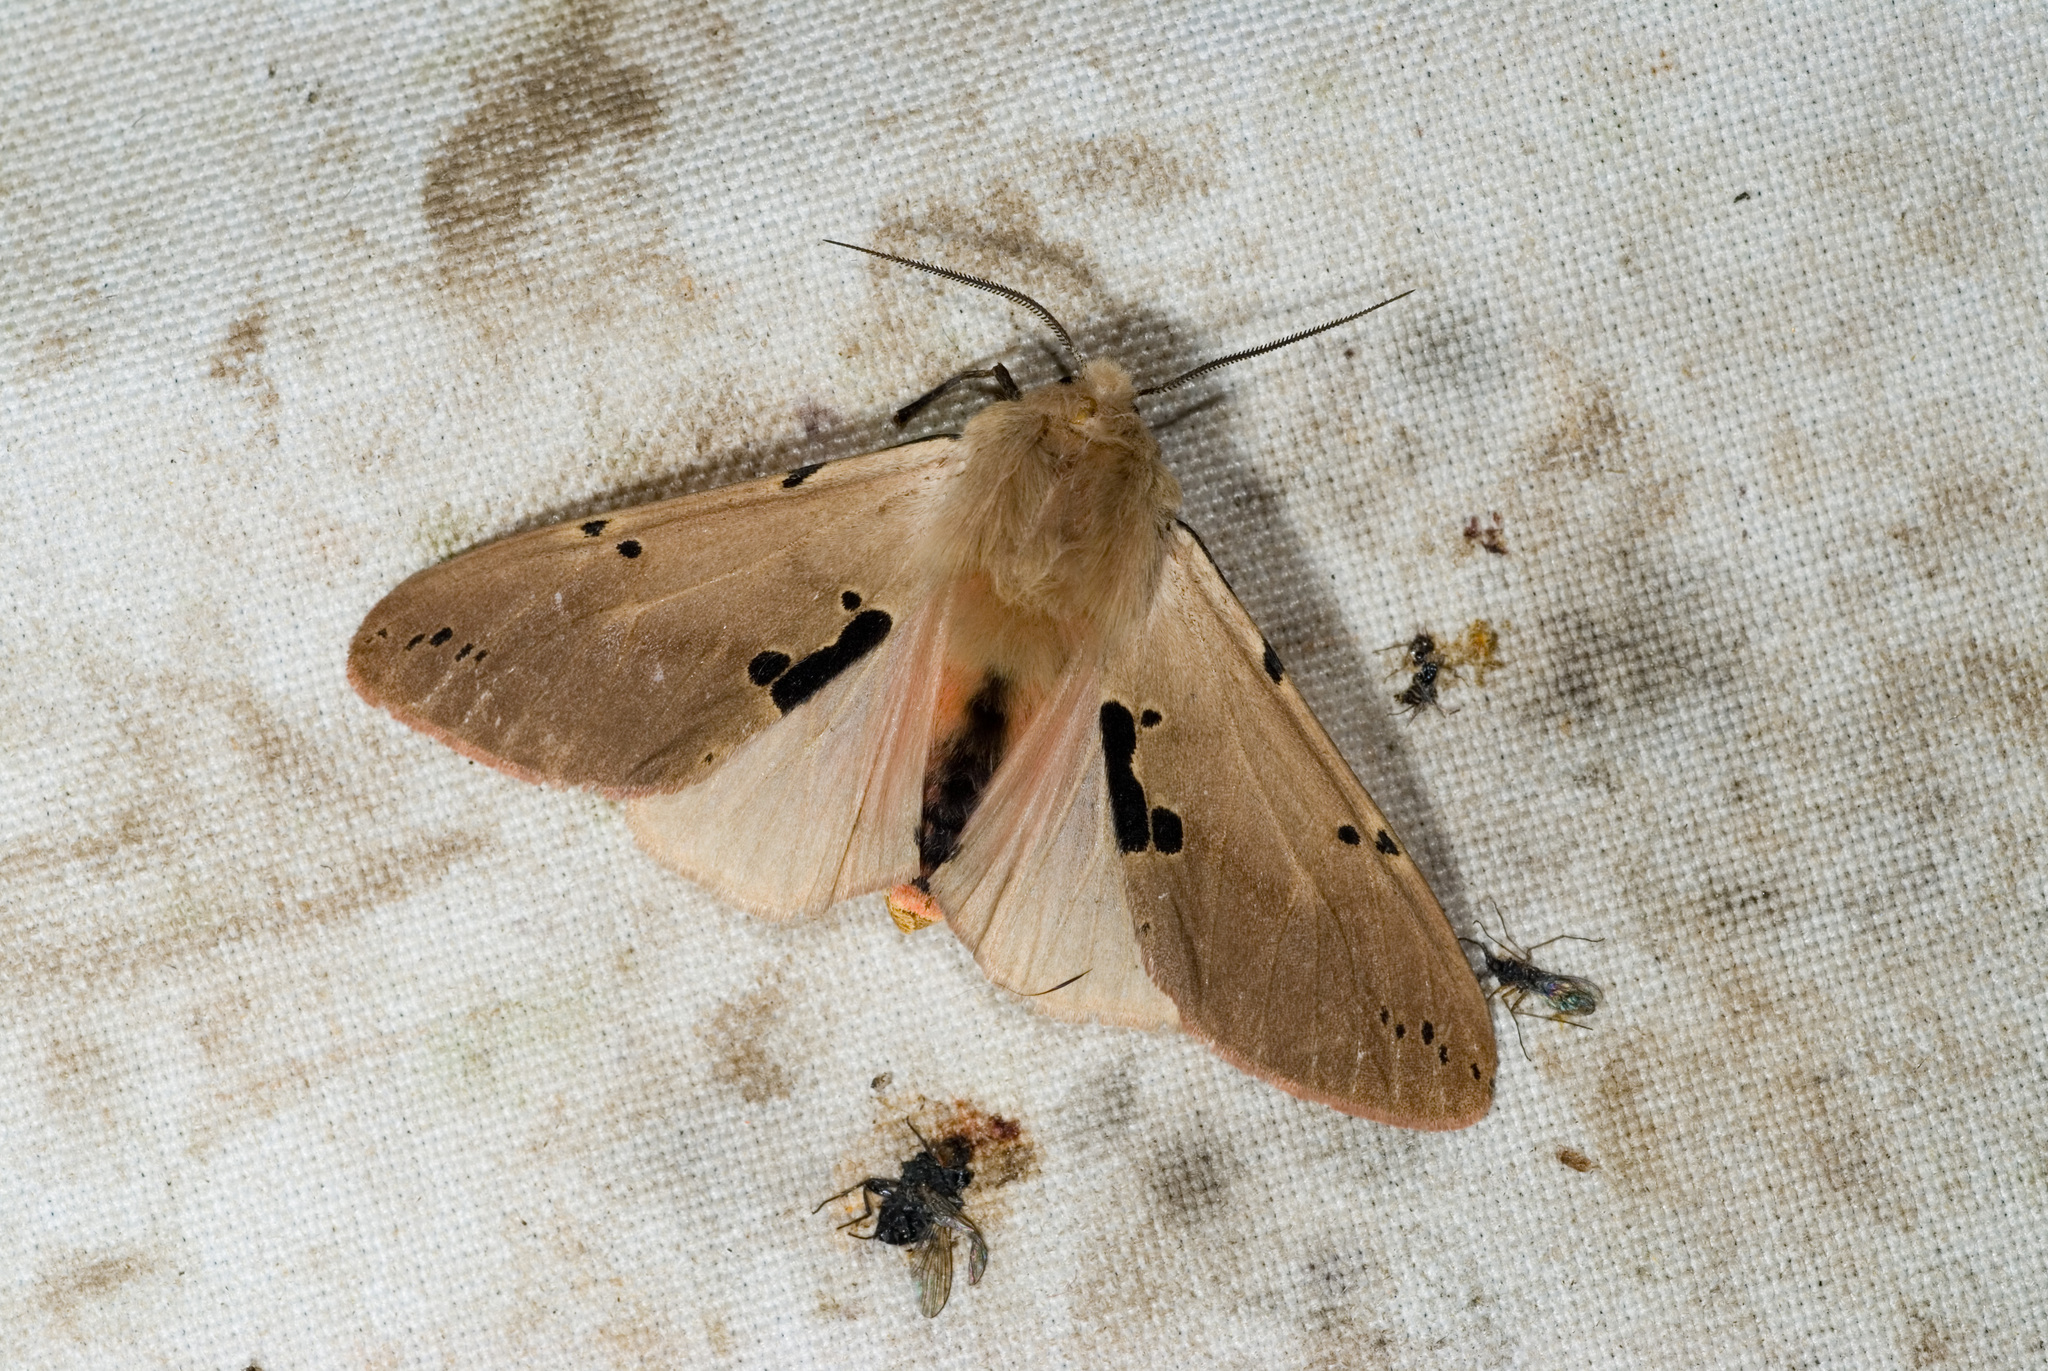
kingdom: Animalia
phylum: Arthropoda
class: Insecta
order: Lepidoptera
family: Erebidae
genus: Spilarctia
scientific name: Spilarctia clava
